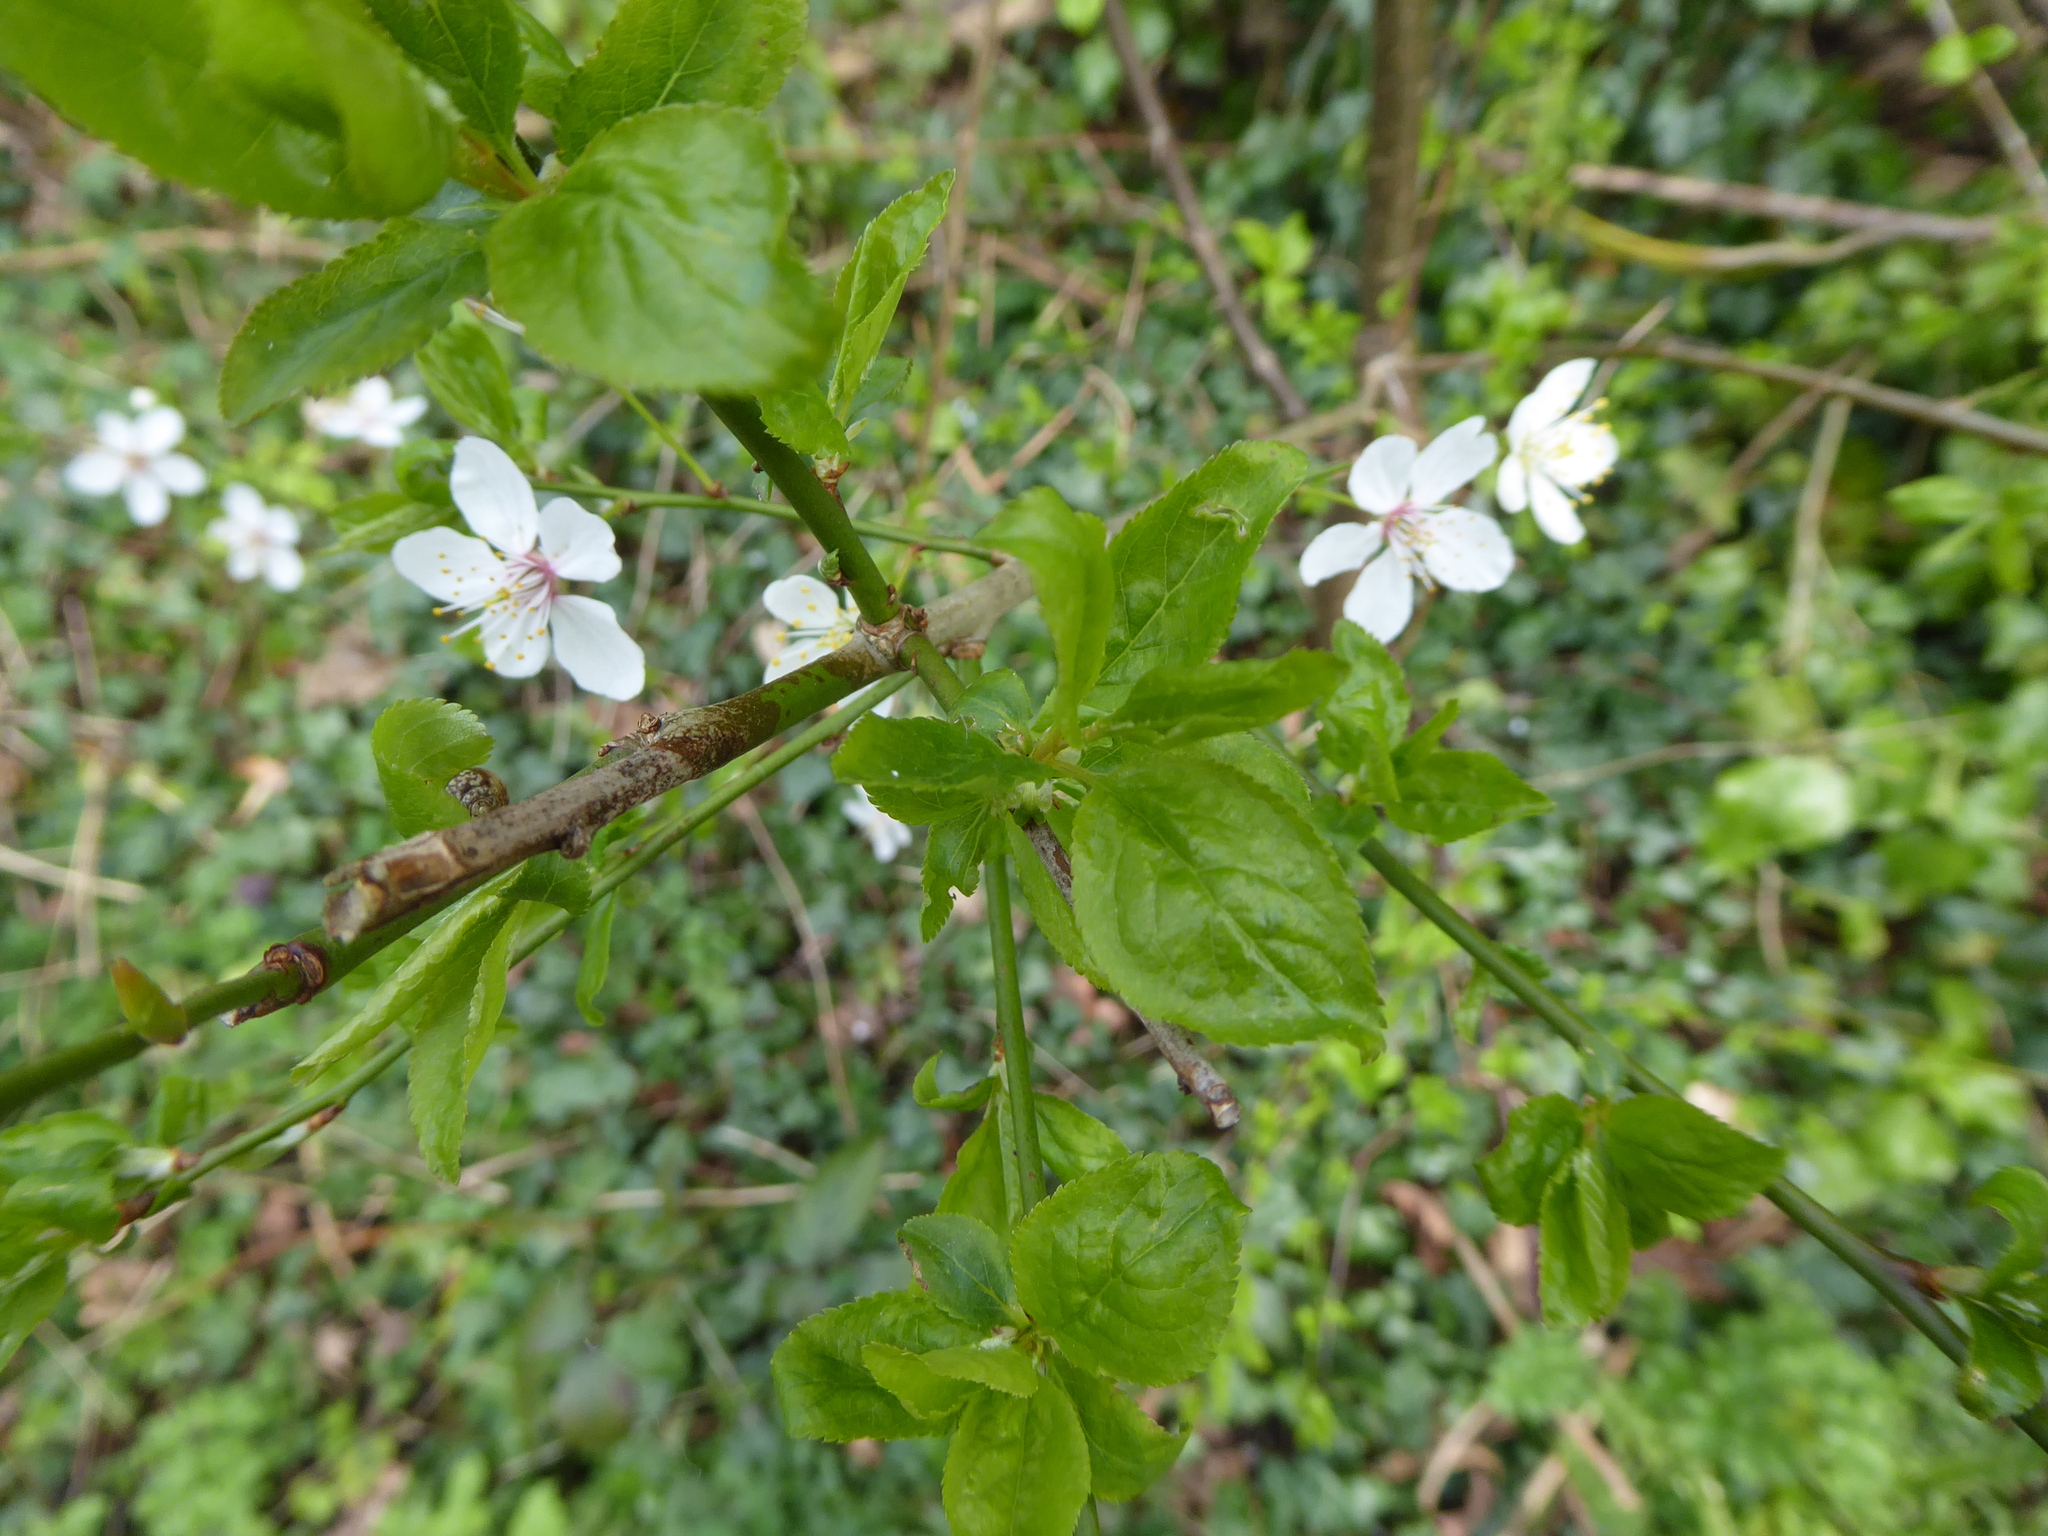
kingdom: Plantae
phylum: Tracheophyta
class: Magnoliopsida
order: Rosales
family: Rosaceae
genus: Prunus
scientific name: Prunus cerasifera
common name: Cherry plum
